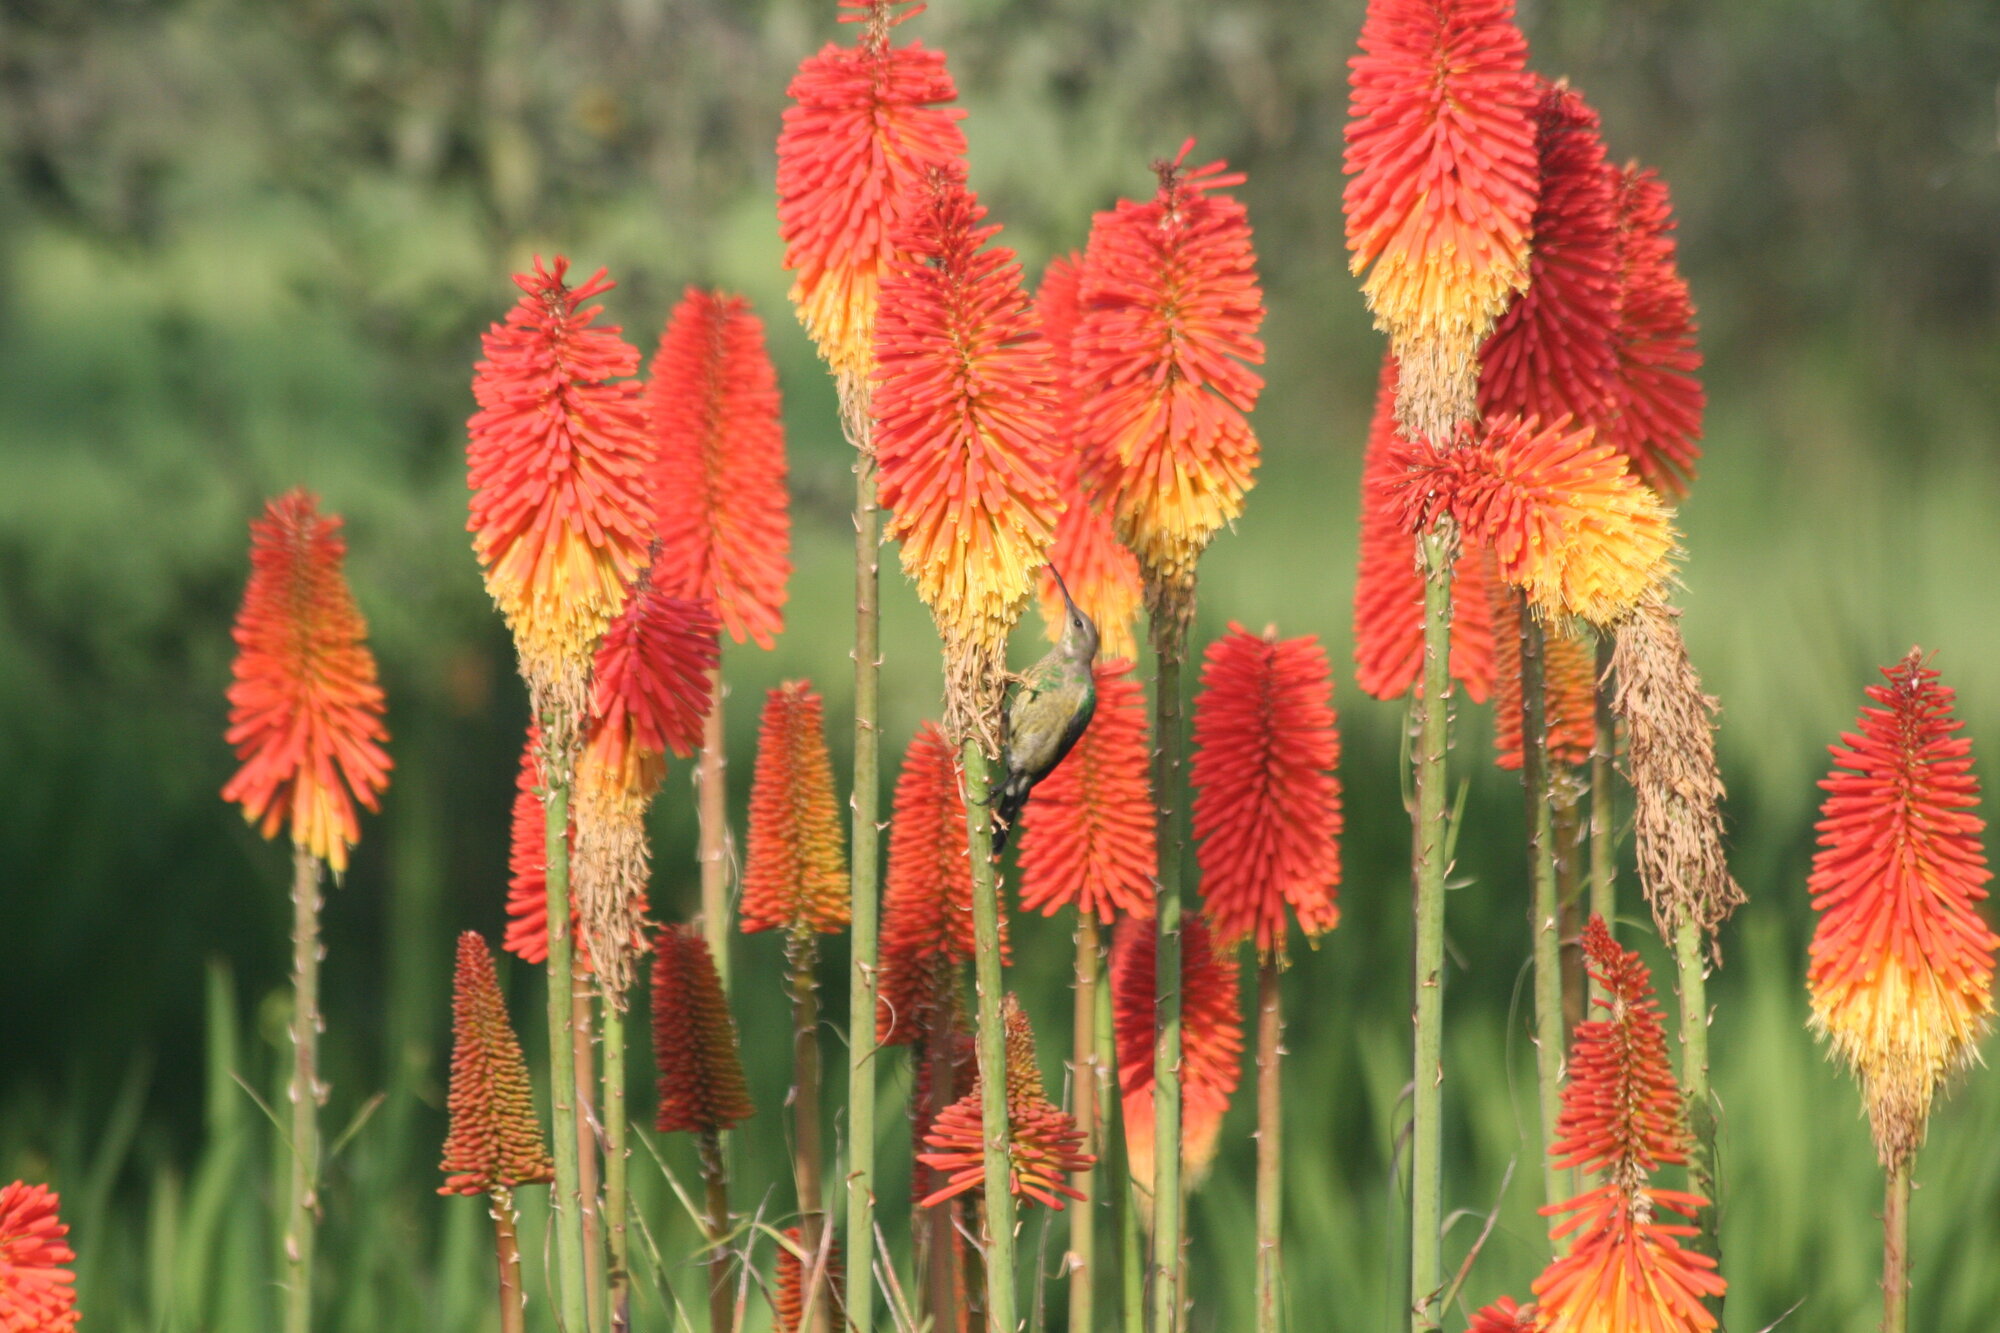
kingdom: Animalia
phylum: Chordata
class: Aves
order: Passeriformes
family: Nectariniidae
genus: Nectarinia
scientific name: Nectarinia famosa
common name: Malachite sunbird
